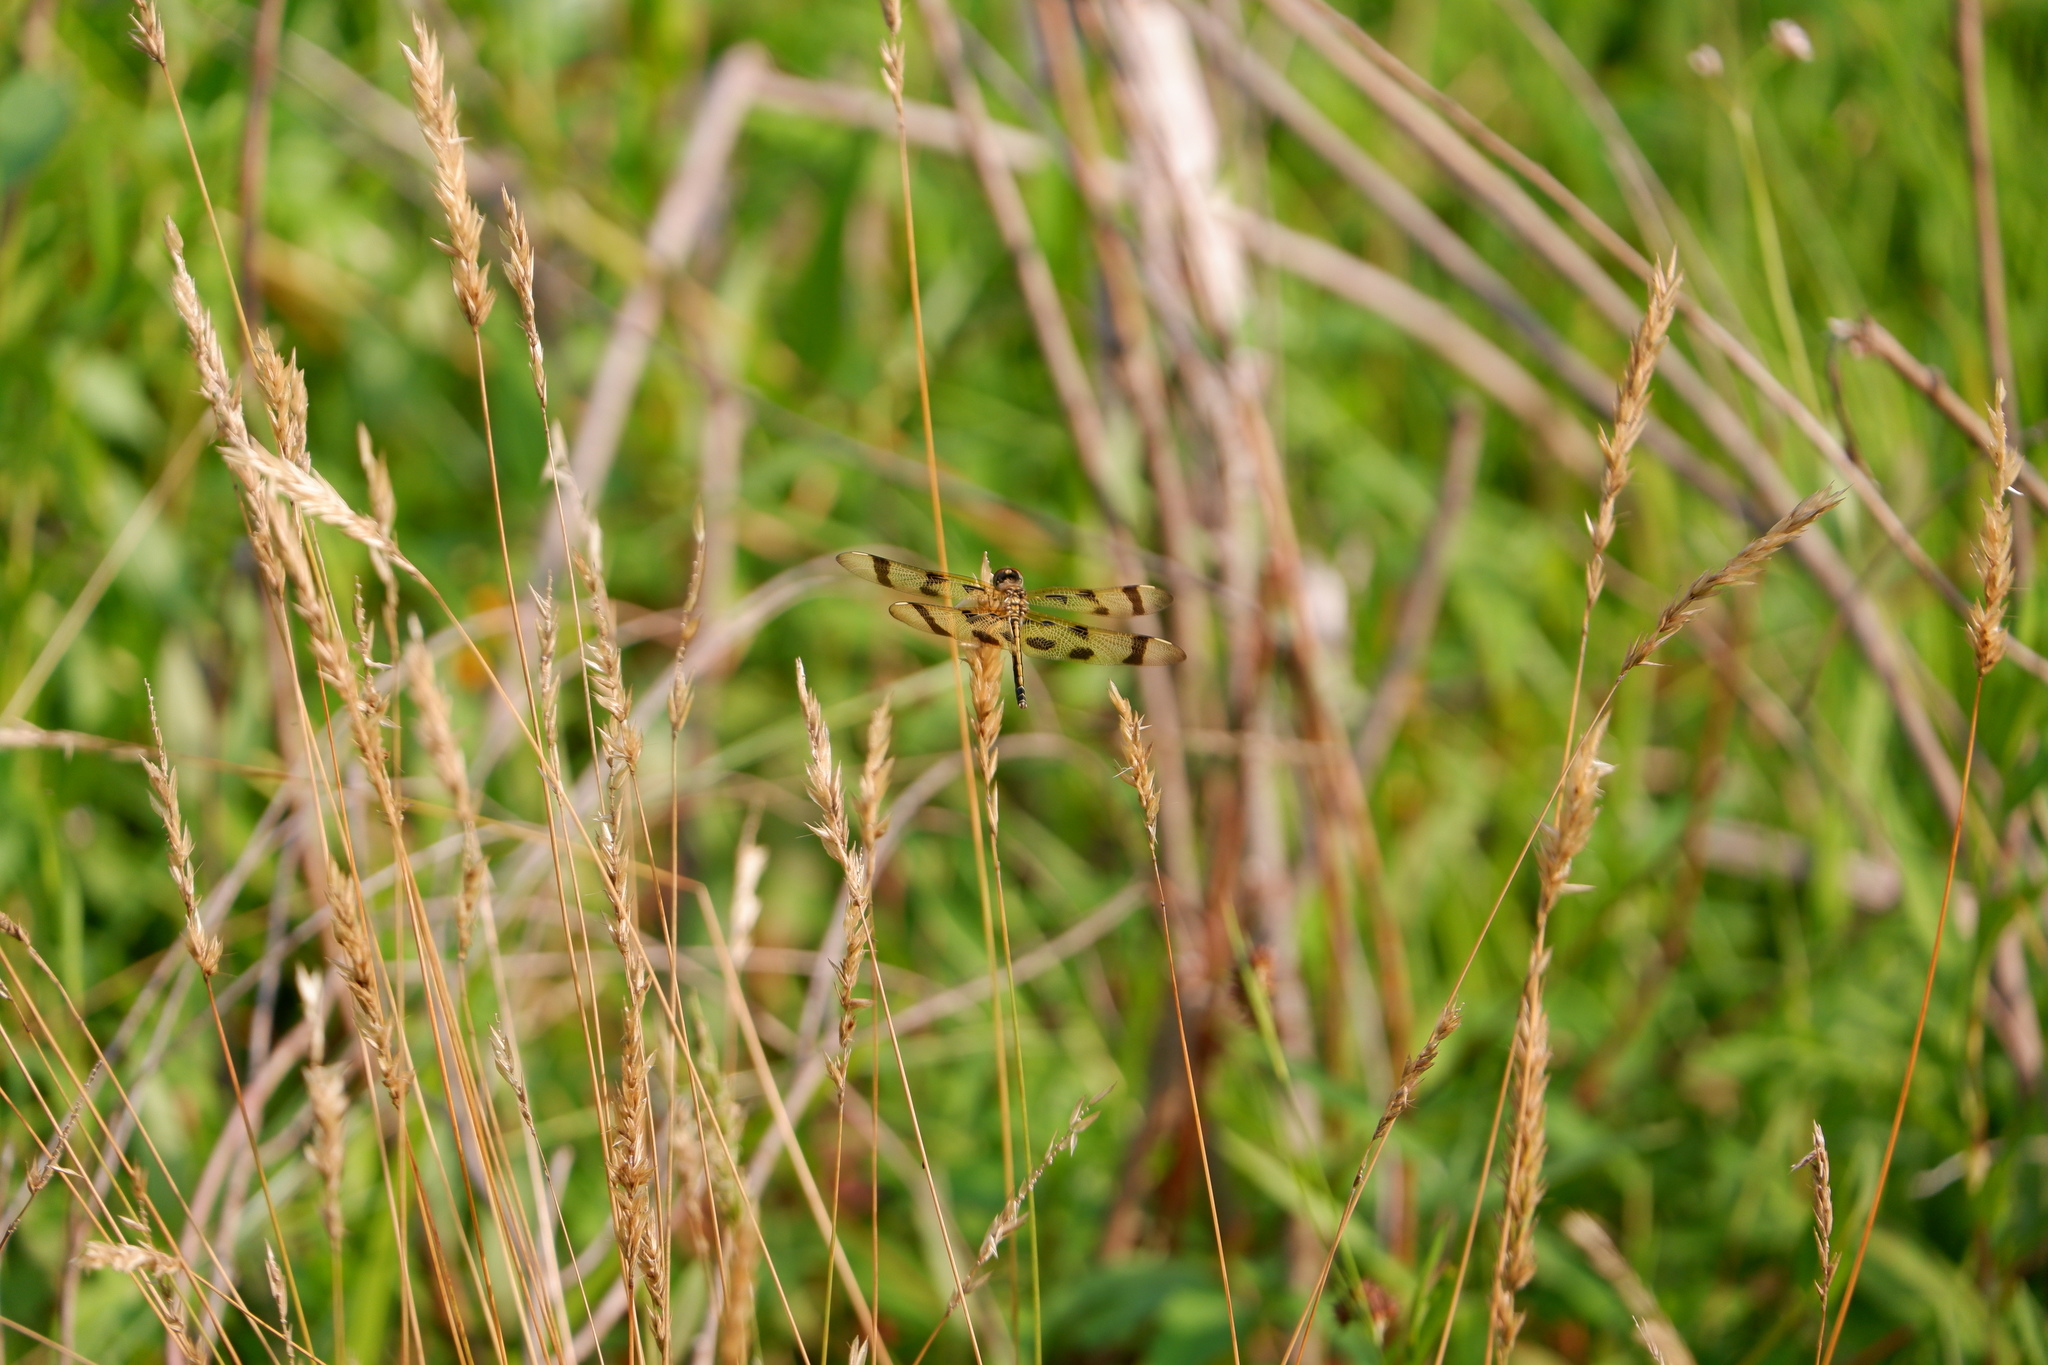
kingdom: Animalia
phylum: Arthropoda
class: Insecta
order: Odonata
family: Libellulidae
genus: Celithemis
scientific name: Celithemis eponina
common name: Halloween pennant
